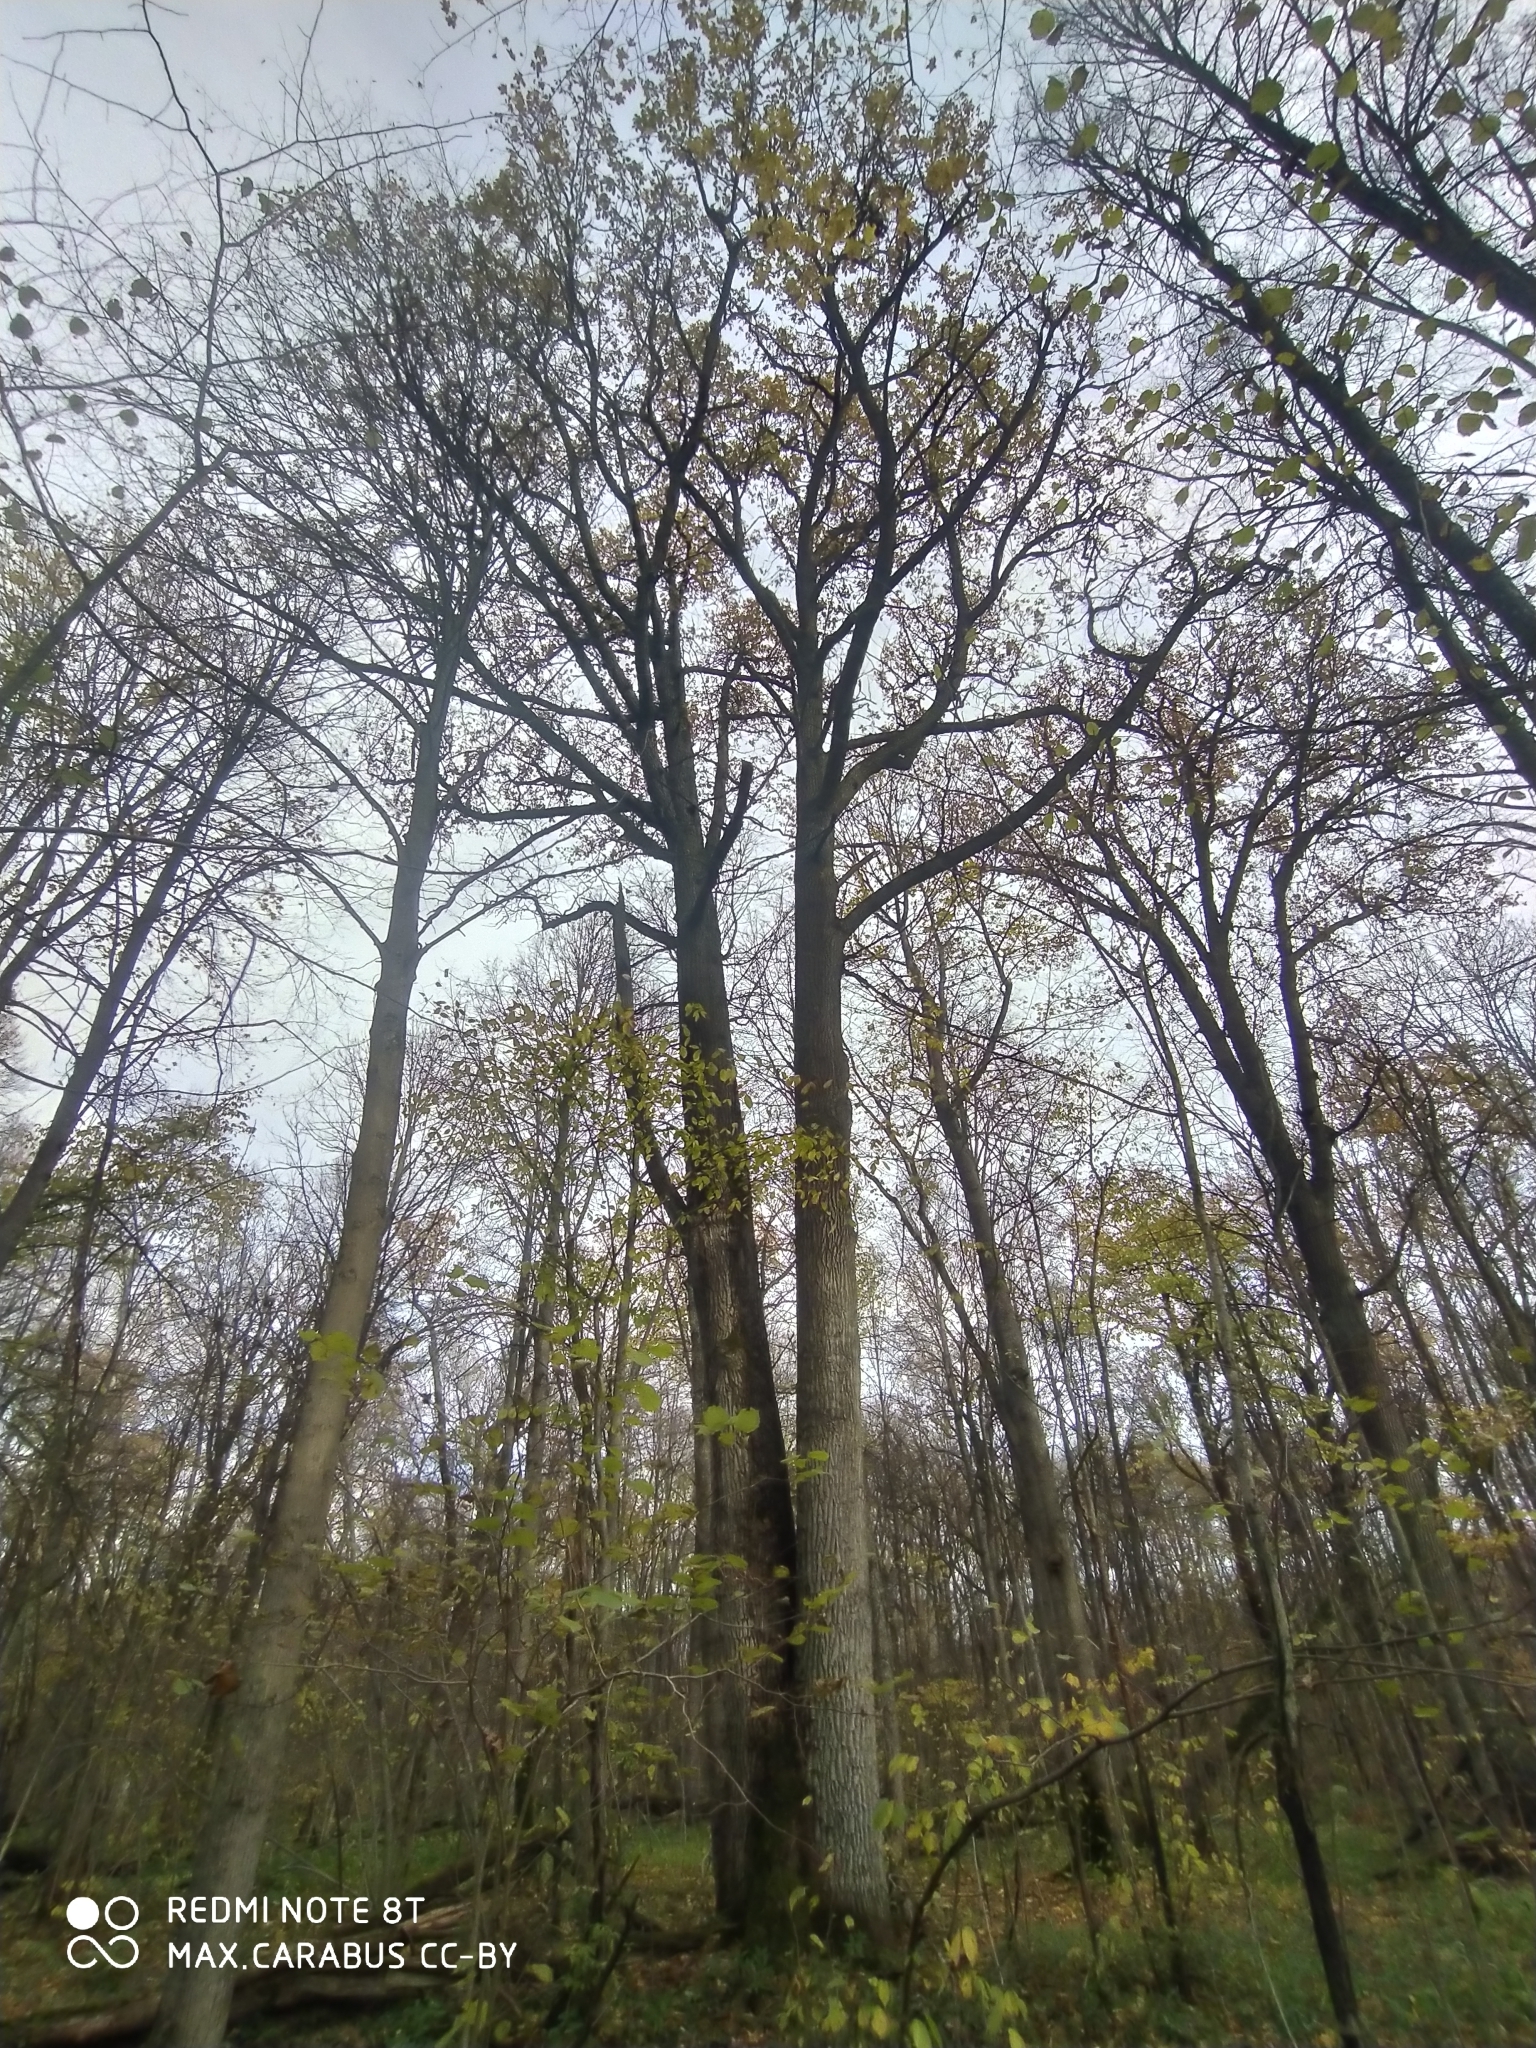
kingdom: Plantae
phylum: Tracheophyta
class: Magnoliopsida
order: Fagales
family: Fagaceae
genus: Quercus
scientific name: Quercus robur
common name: Pedunculate oak
